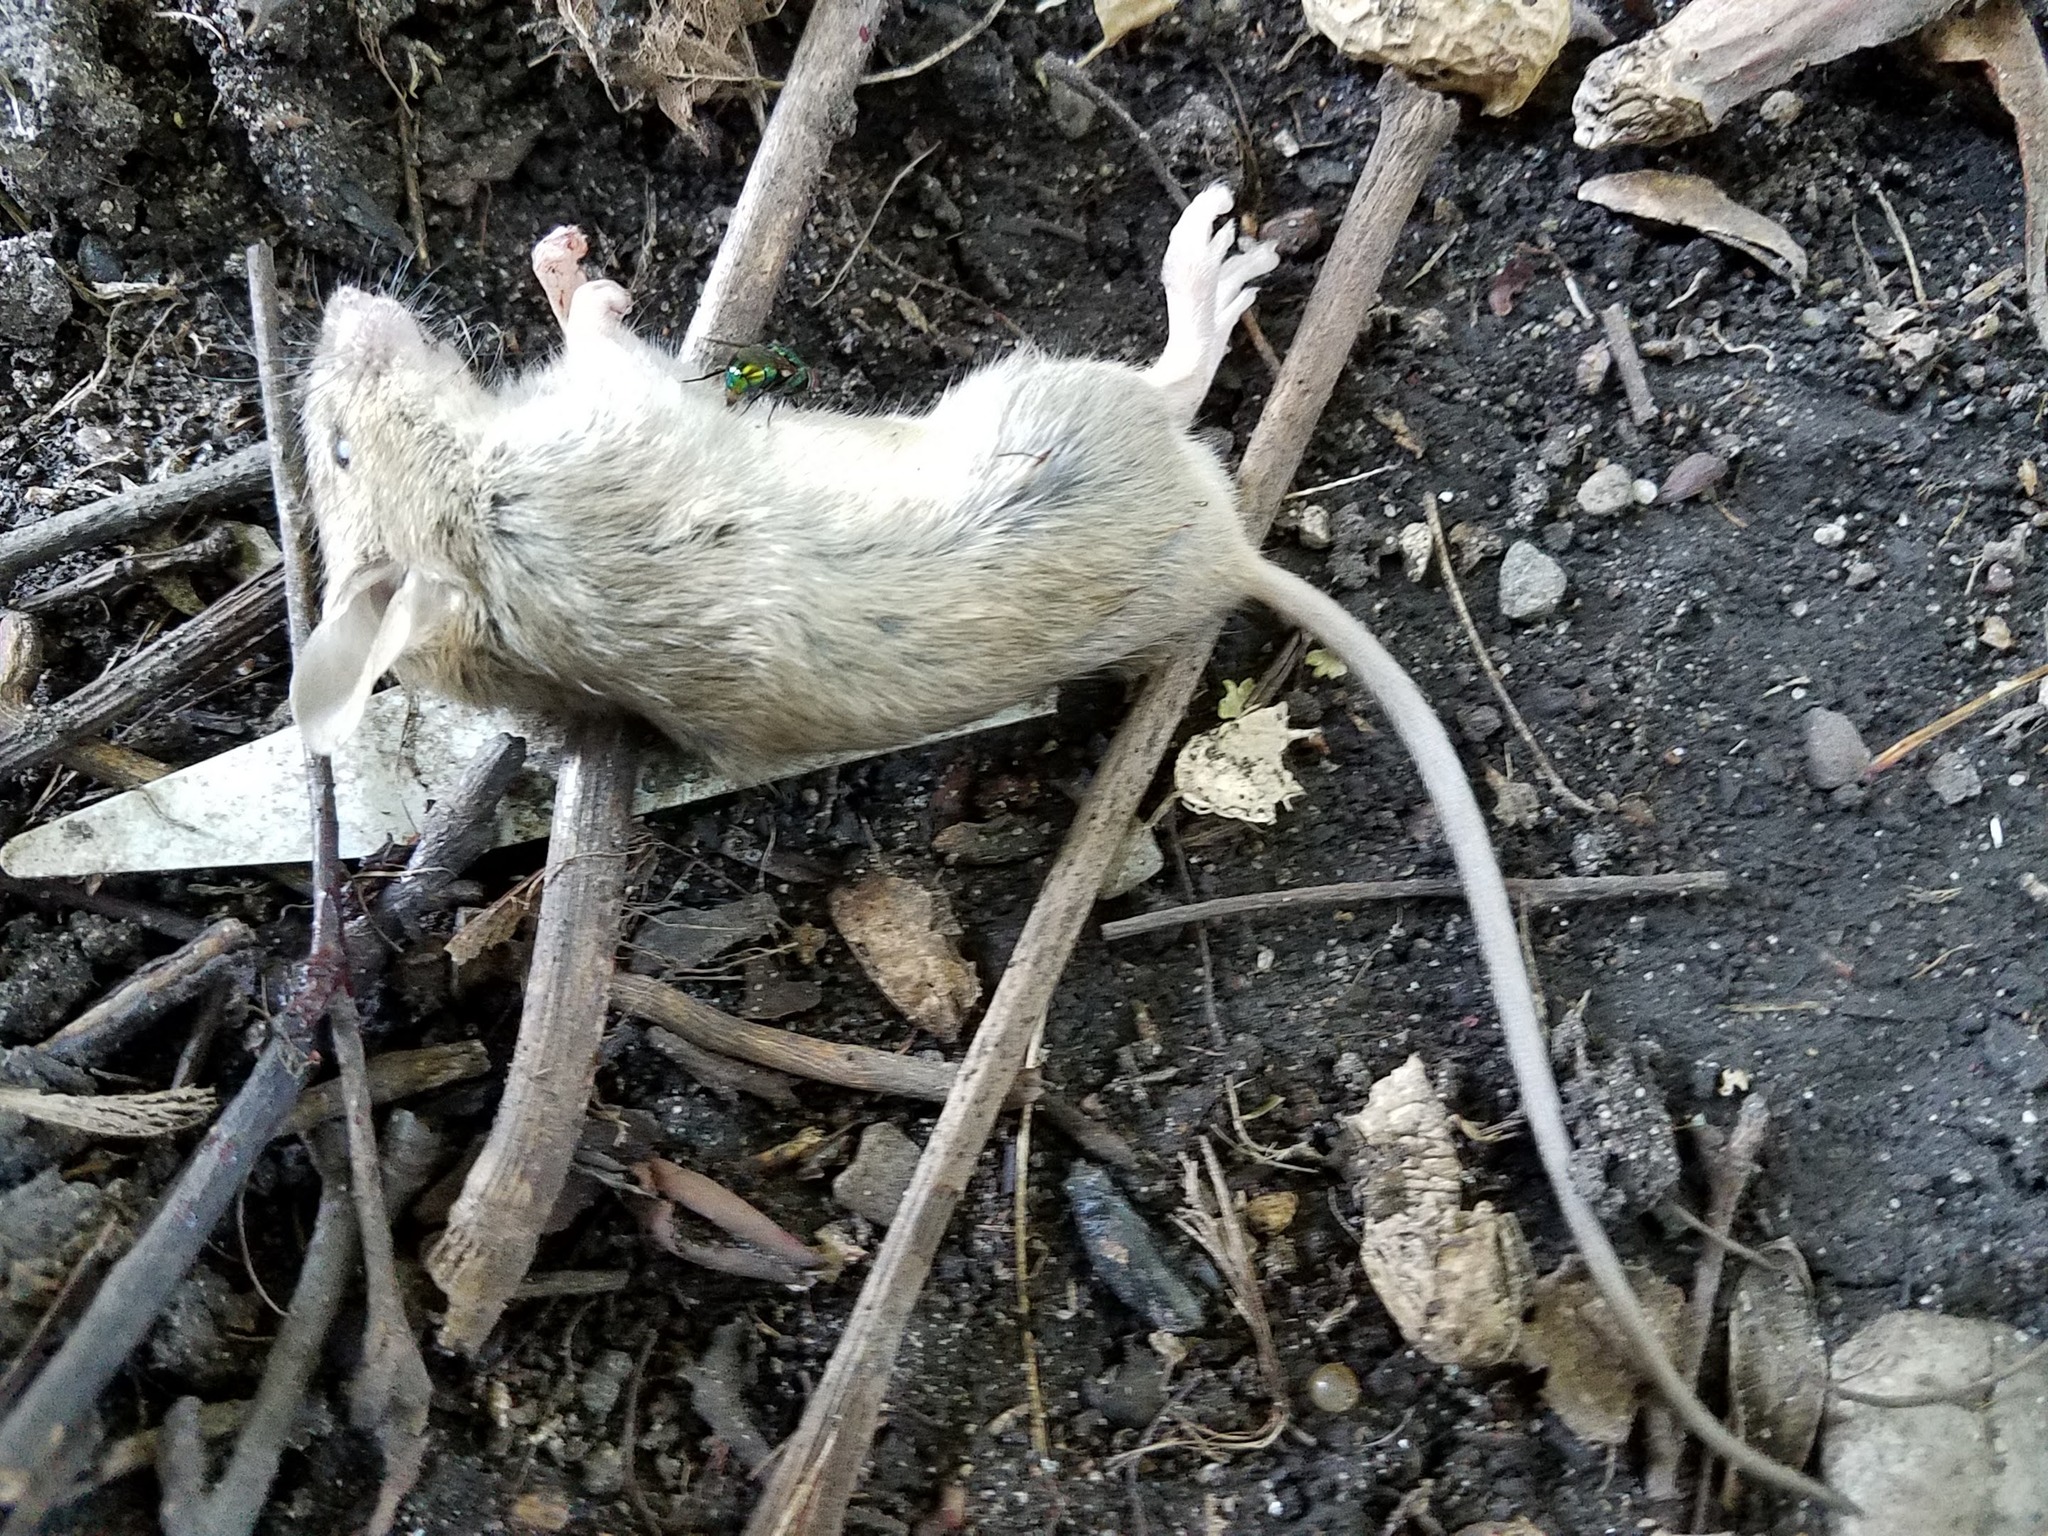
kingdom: Animalia
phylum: Chordata
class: Mammalia
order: Rodentia
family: Muridae
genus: Mus
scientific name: Mus musculus
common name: House mouse
